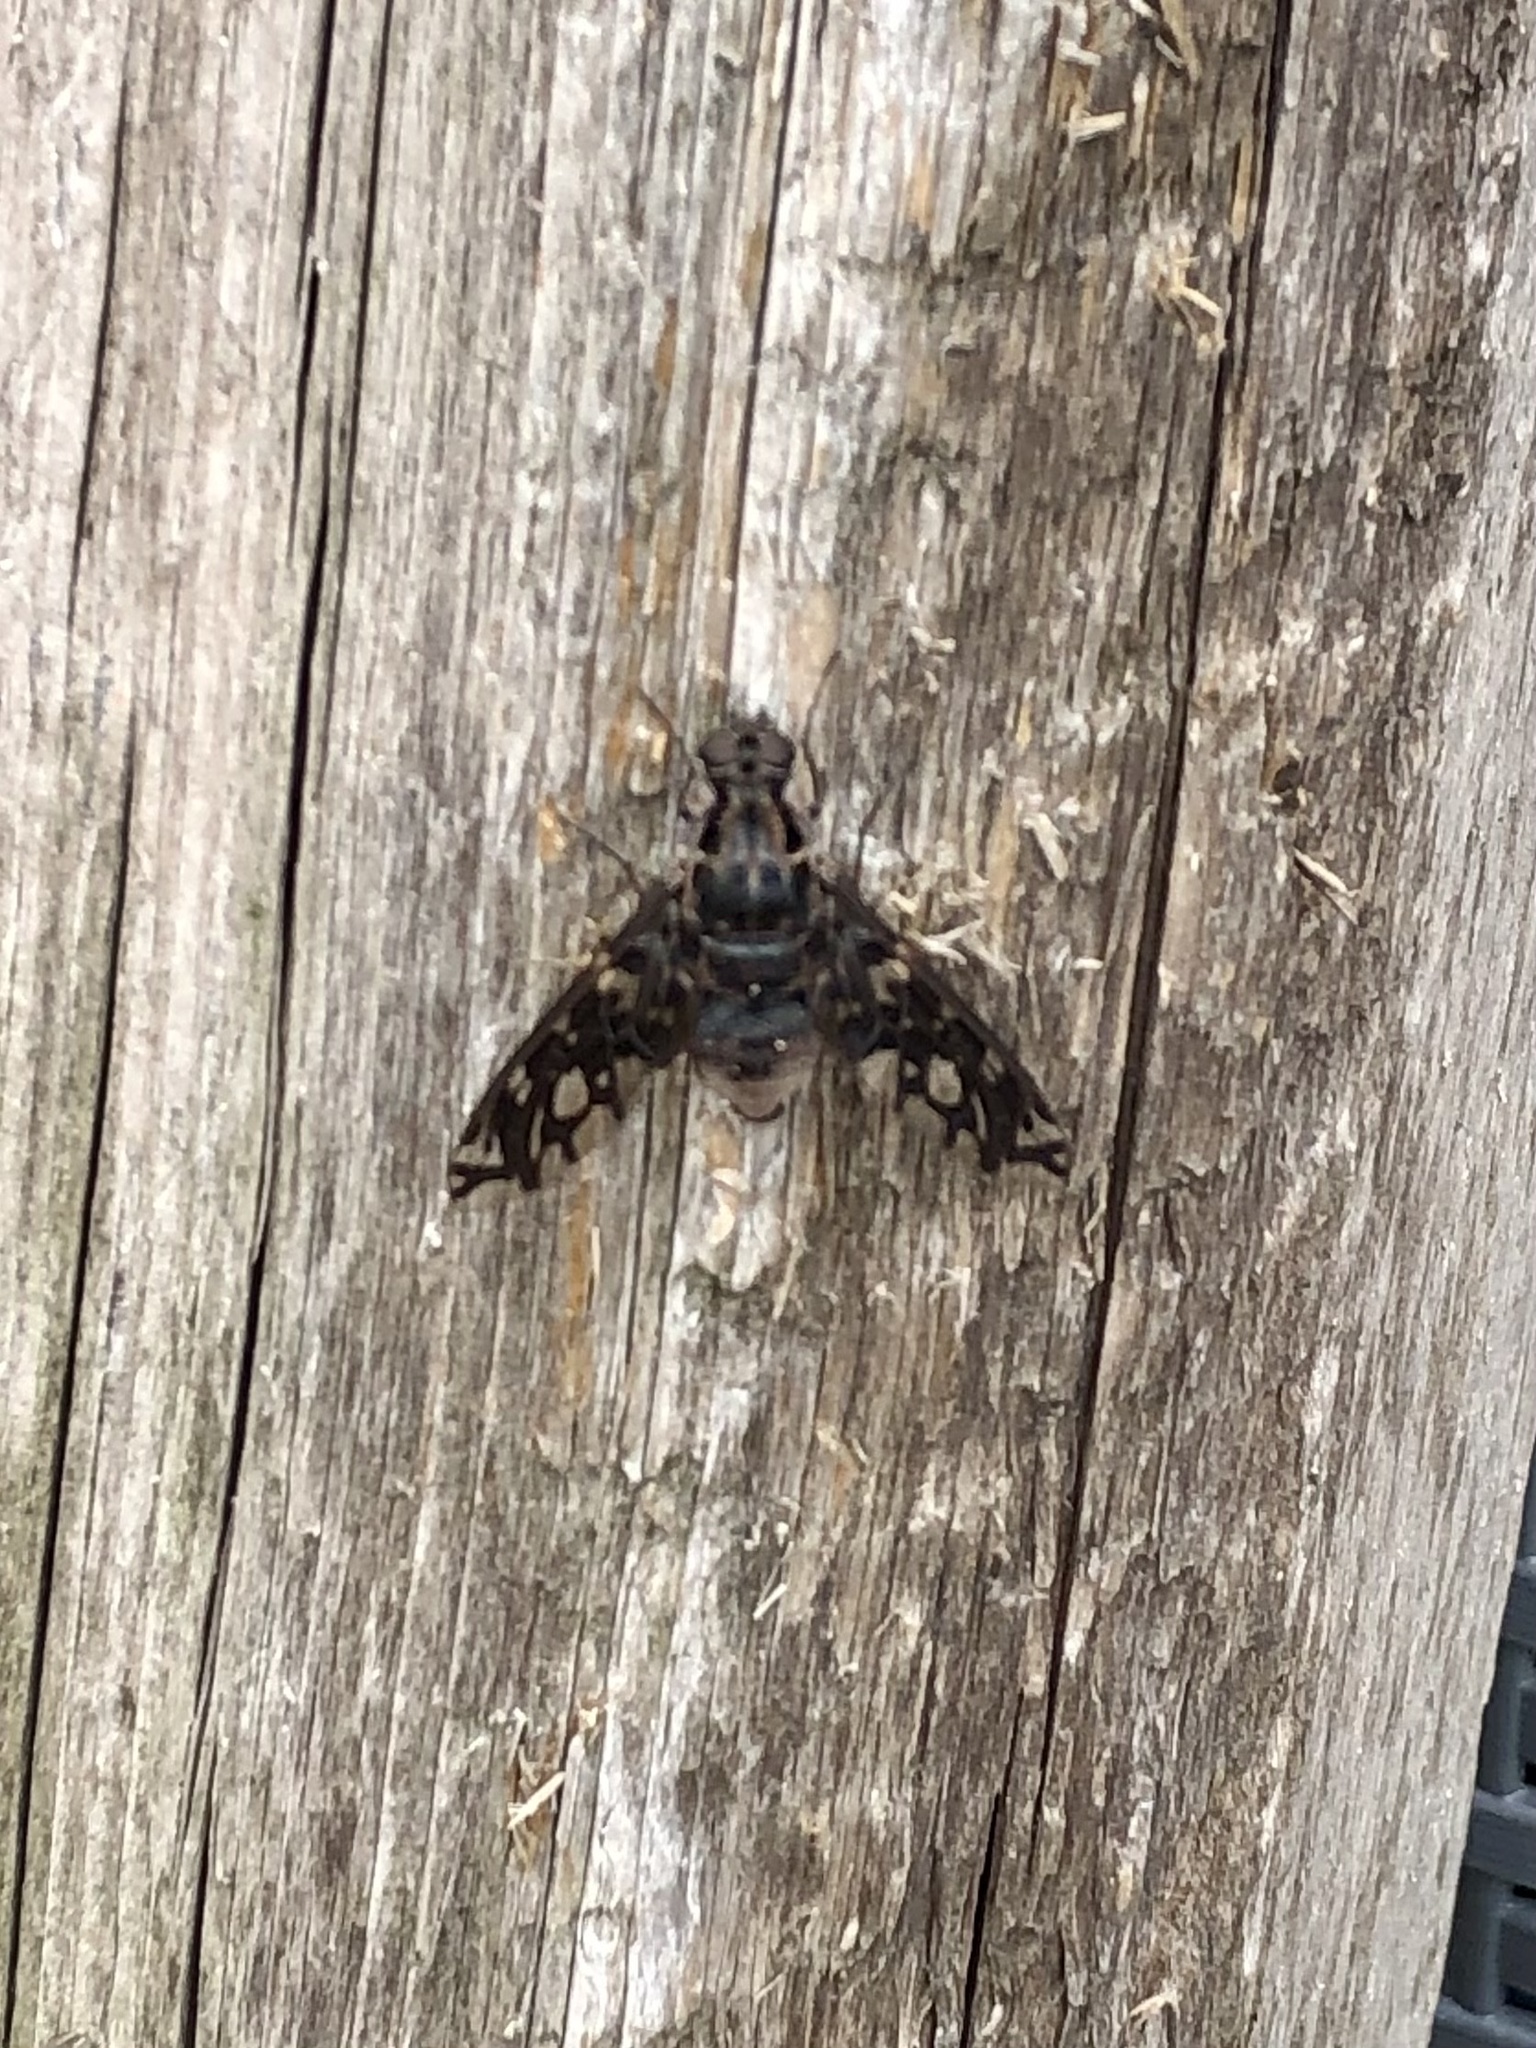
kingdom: Animalia
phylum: Arthropoda
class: Insecta
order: Diptera
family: Bombyliidae
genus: Xenox
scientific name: Xenox tigrinus
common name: Tiger bee fly
